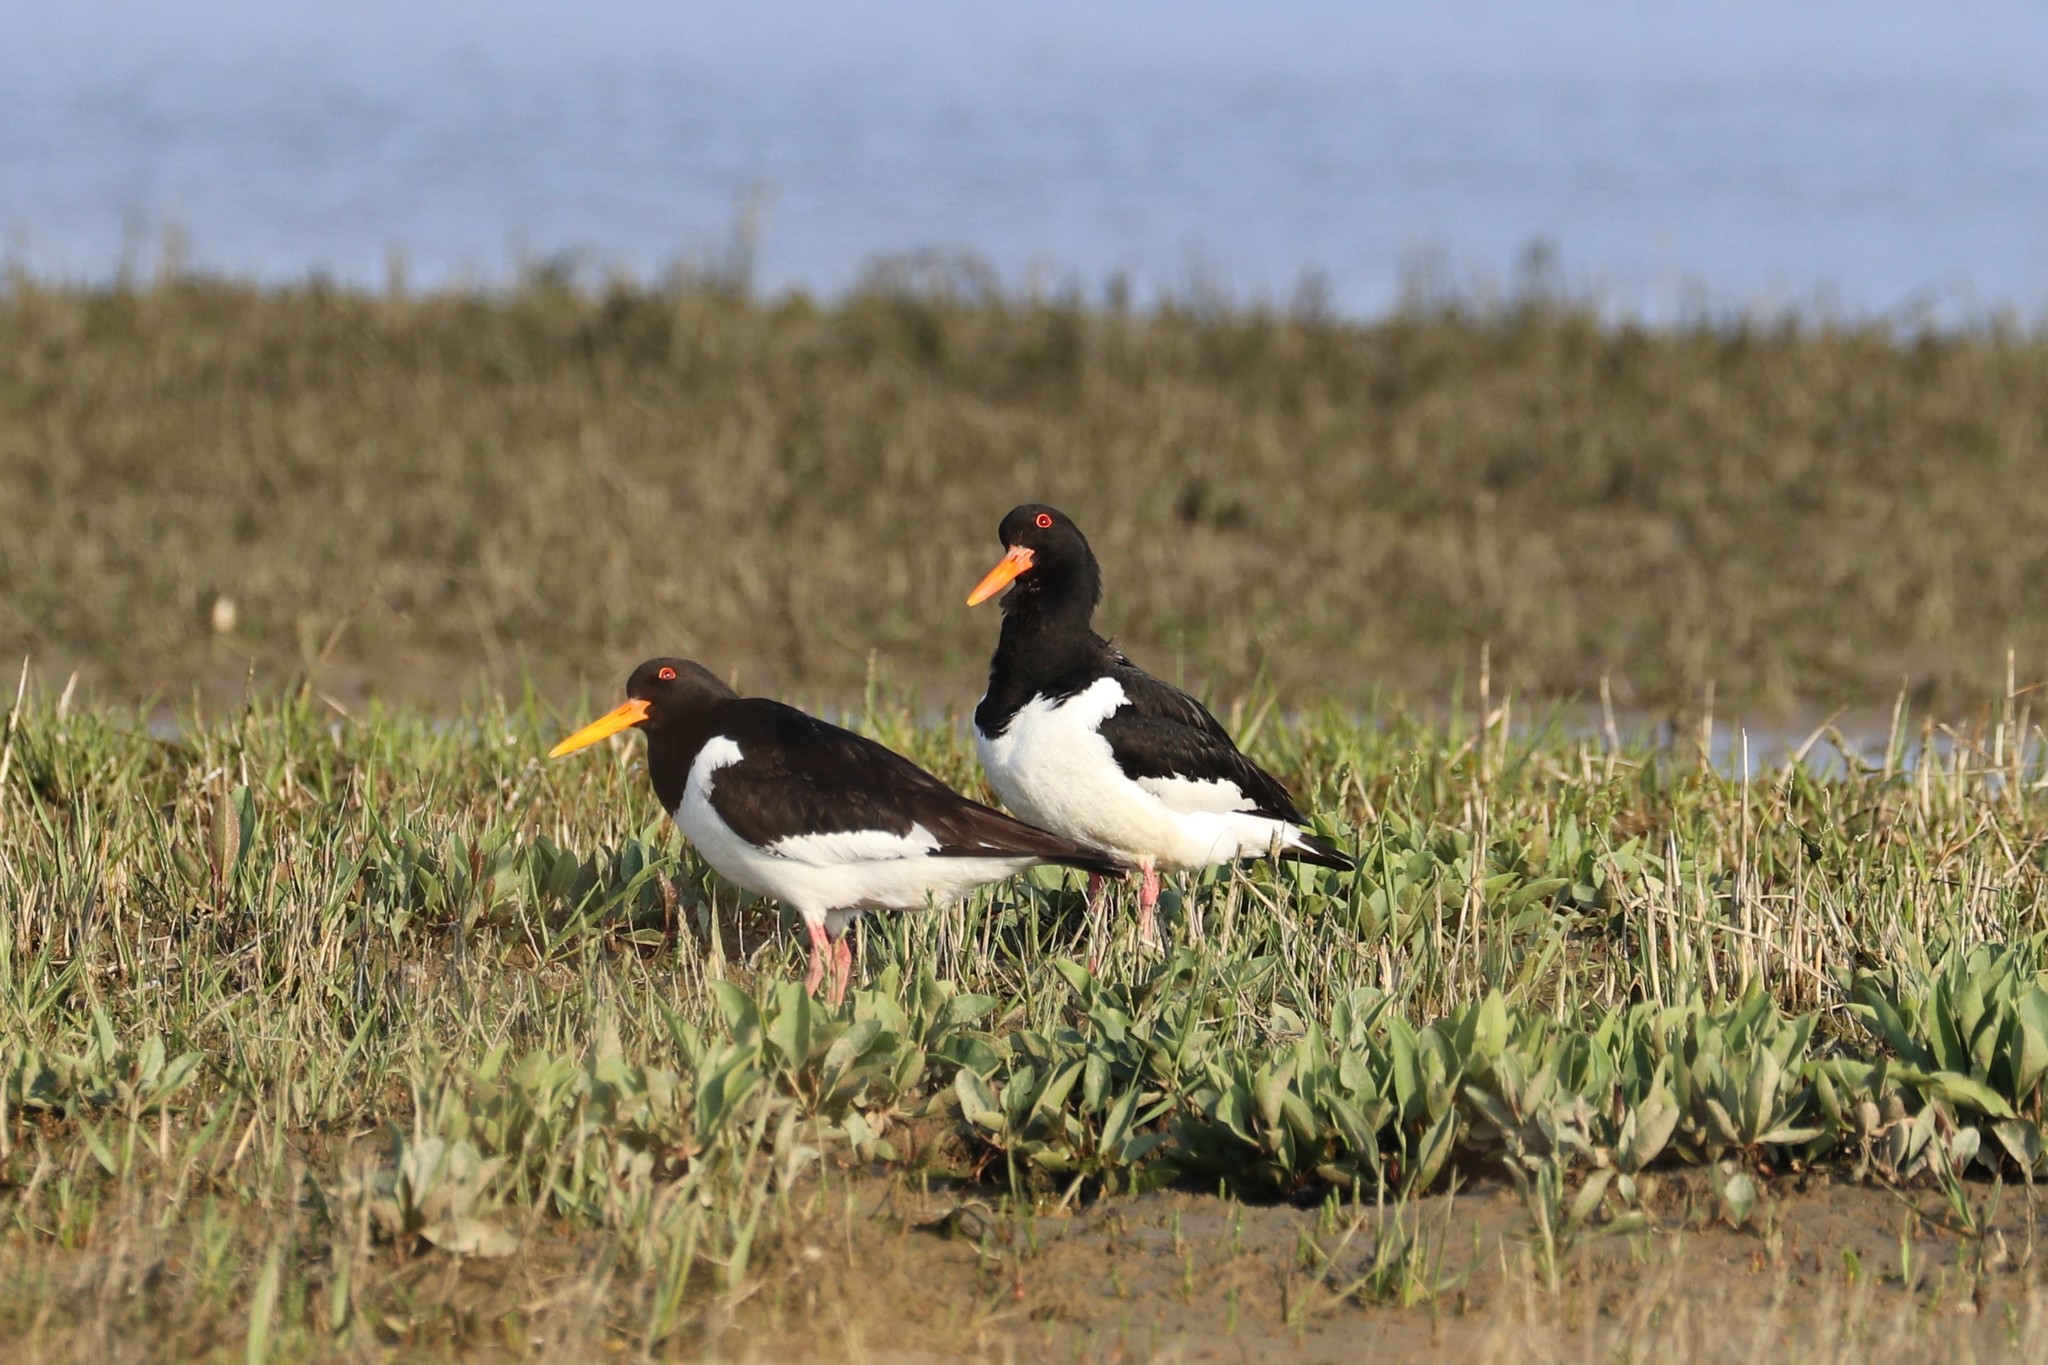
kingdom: Animalia
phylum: Chordata
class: Aves
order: Charadriiformes
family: Haematopodidae
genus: Haematopus
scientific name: Haematopus ostralegus
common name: Eurasian oystercatcher
